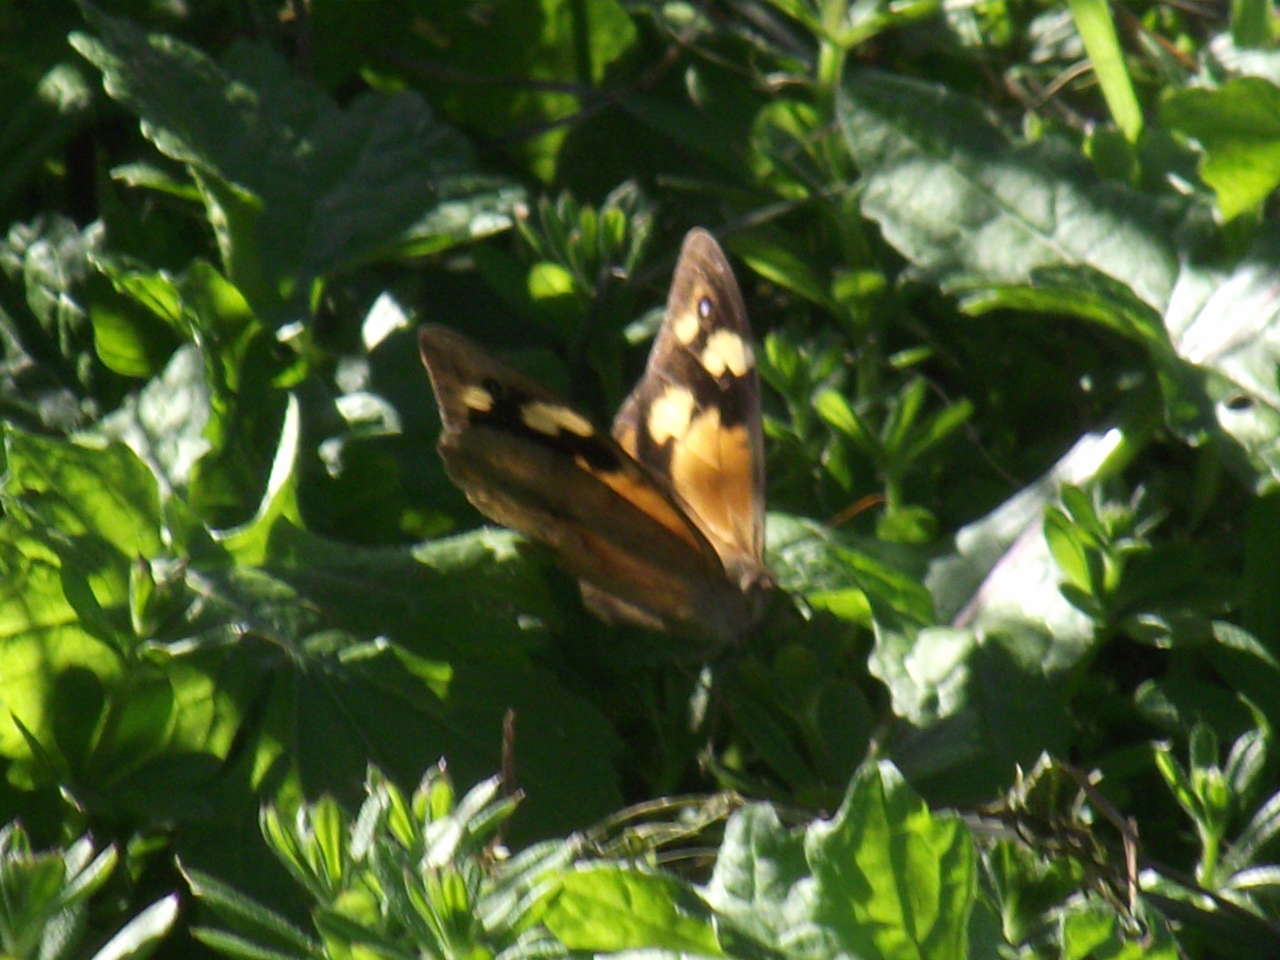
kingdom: Animalia
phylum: Arthropoda
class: Insecta
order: Lepidoptera
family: Nymphalidae
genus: Heteronympha
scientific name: Heteronympha merope
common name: Common brown
